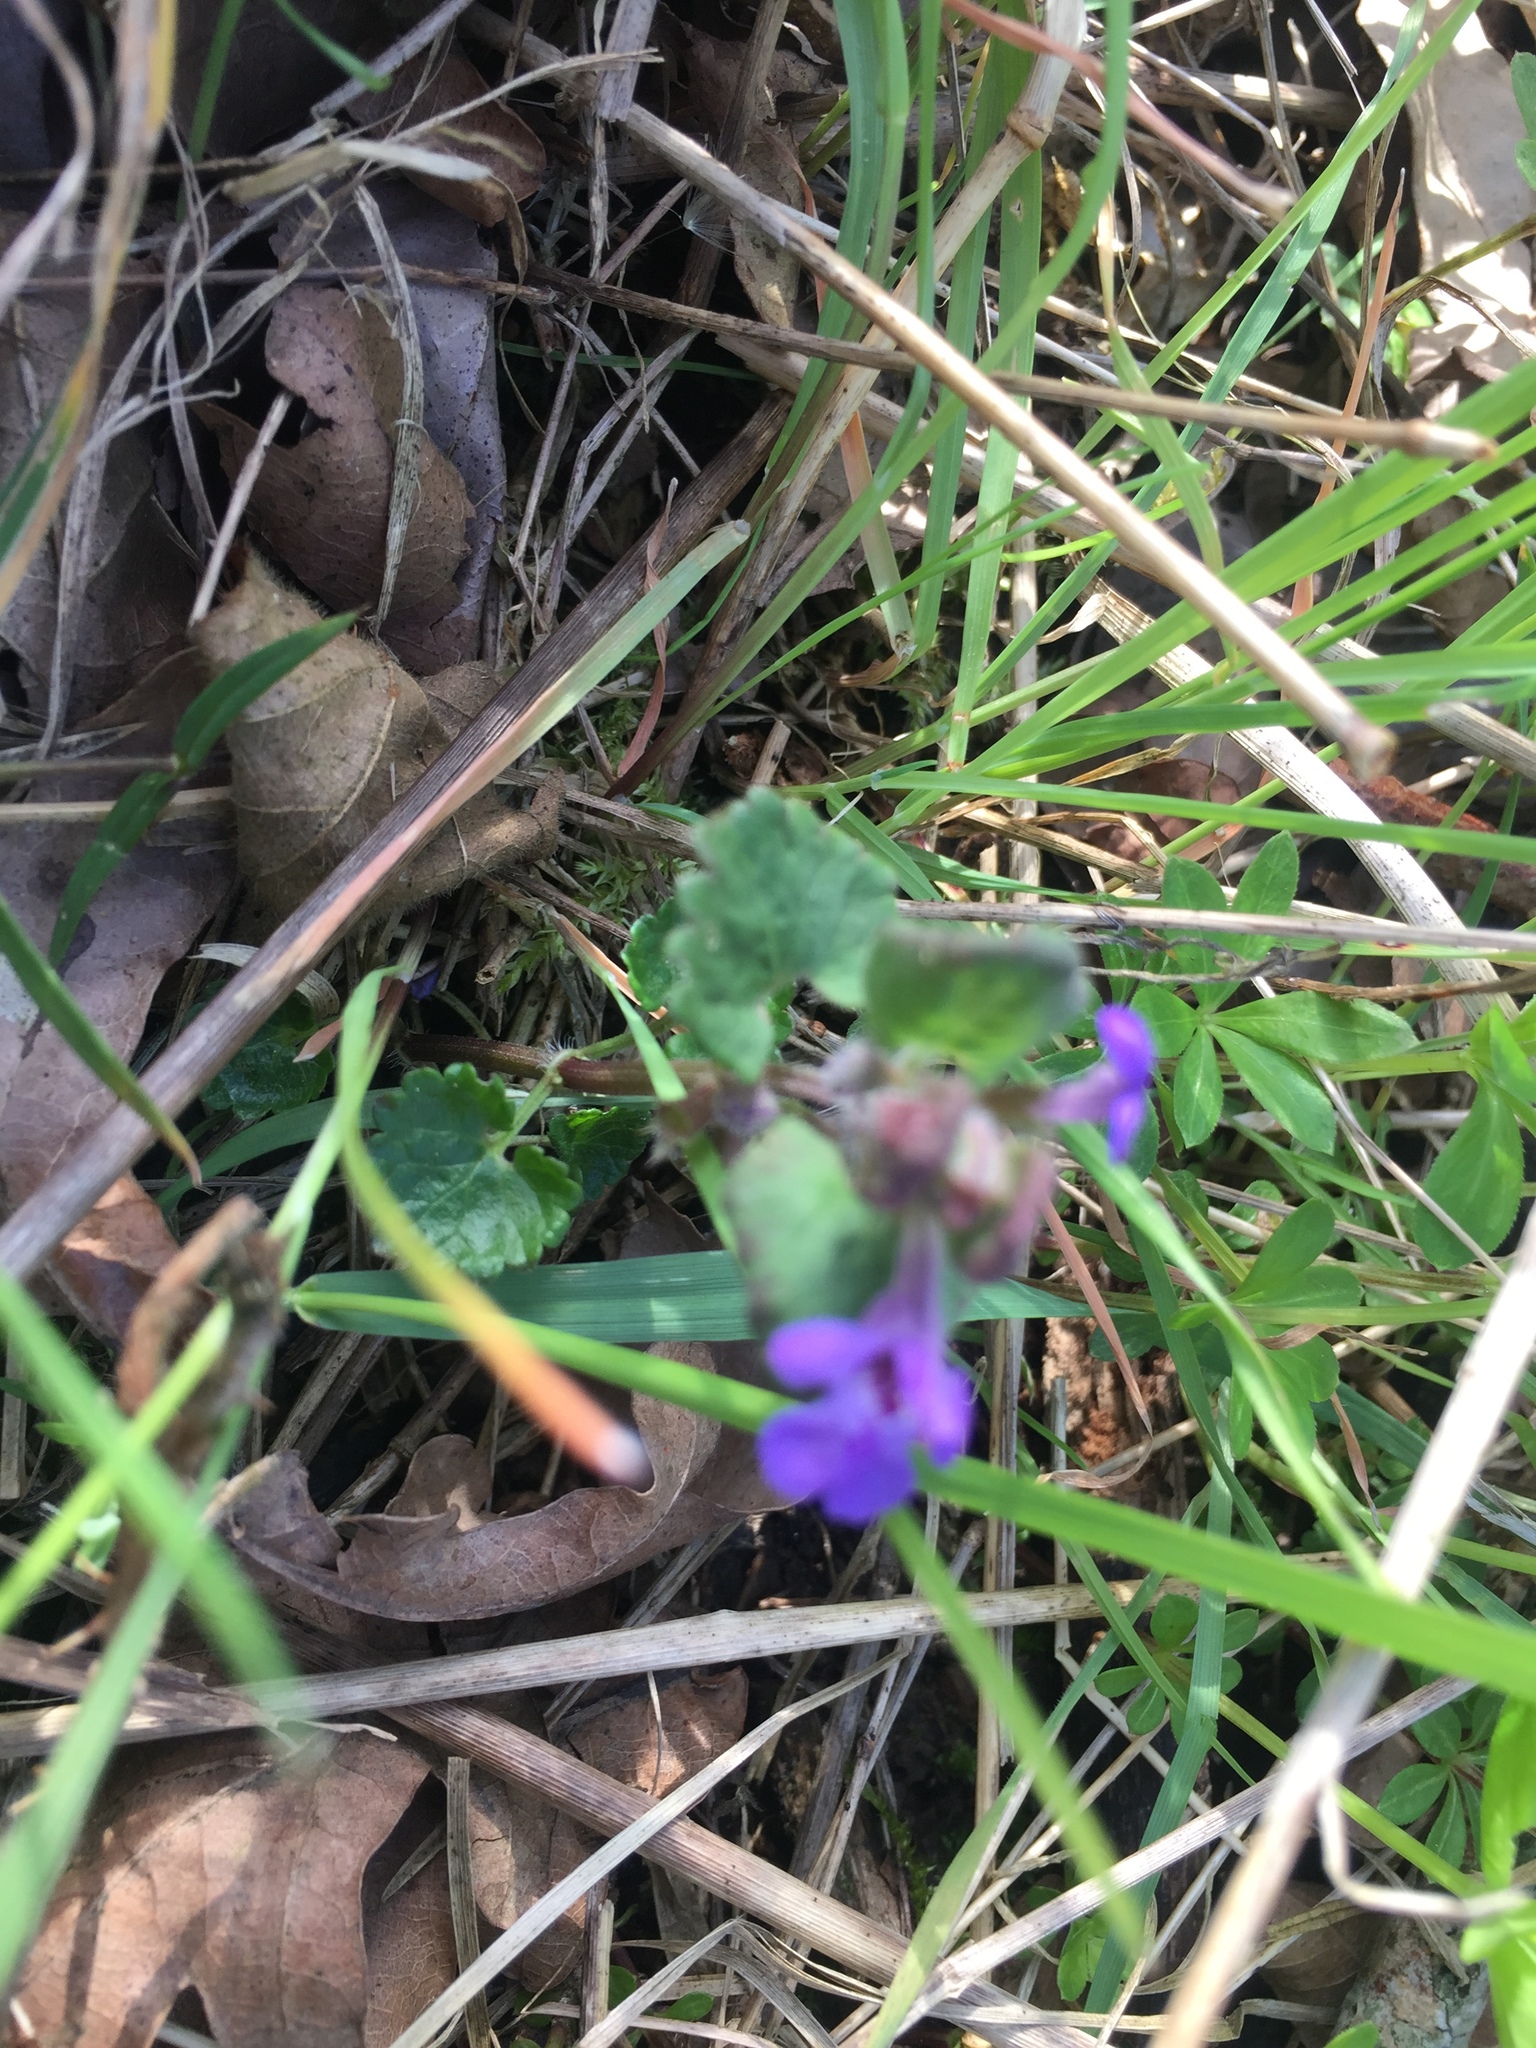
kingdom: Plantae
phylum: Tracheophyta
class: Magnoliopsida
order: Lamiales
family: Lamiaceae
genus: Glechoma
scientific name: Glechoma hederacea
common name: Ground ivy
